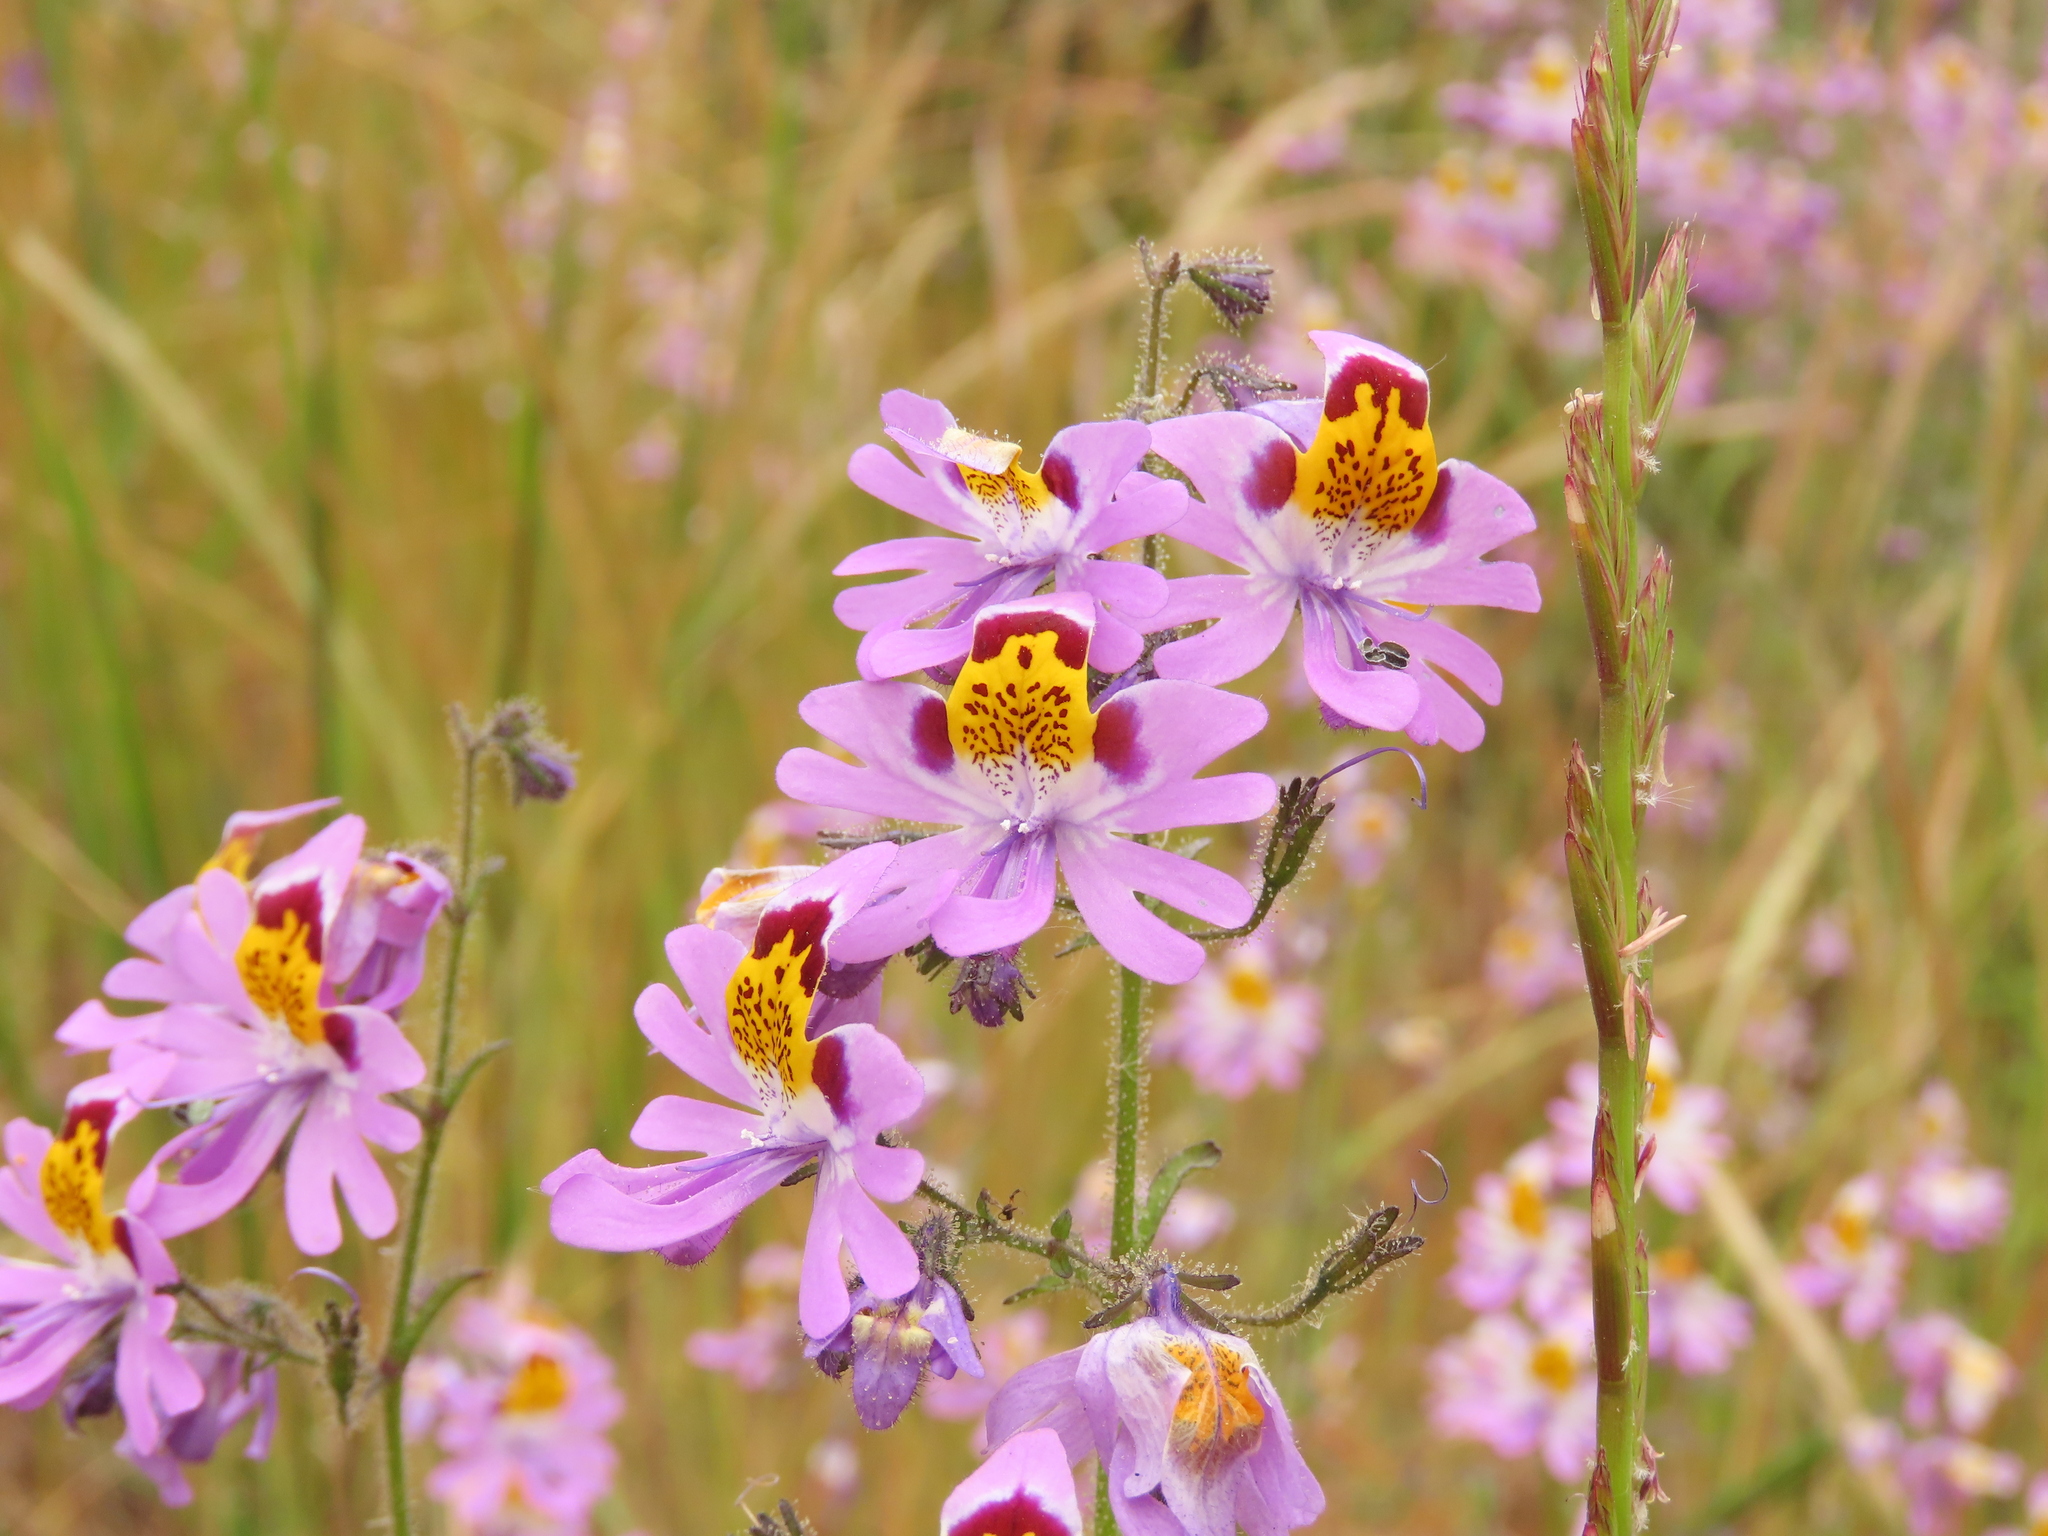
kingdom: Plantae
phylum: Tracheophyta
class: Magnoliopsida
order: Solanales
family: Solanaceae
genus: Schizanthus
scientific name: Schizanthus porrigens
